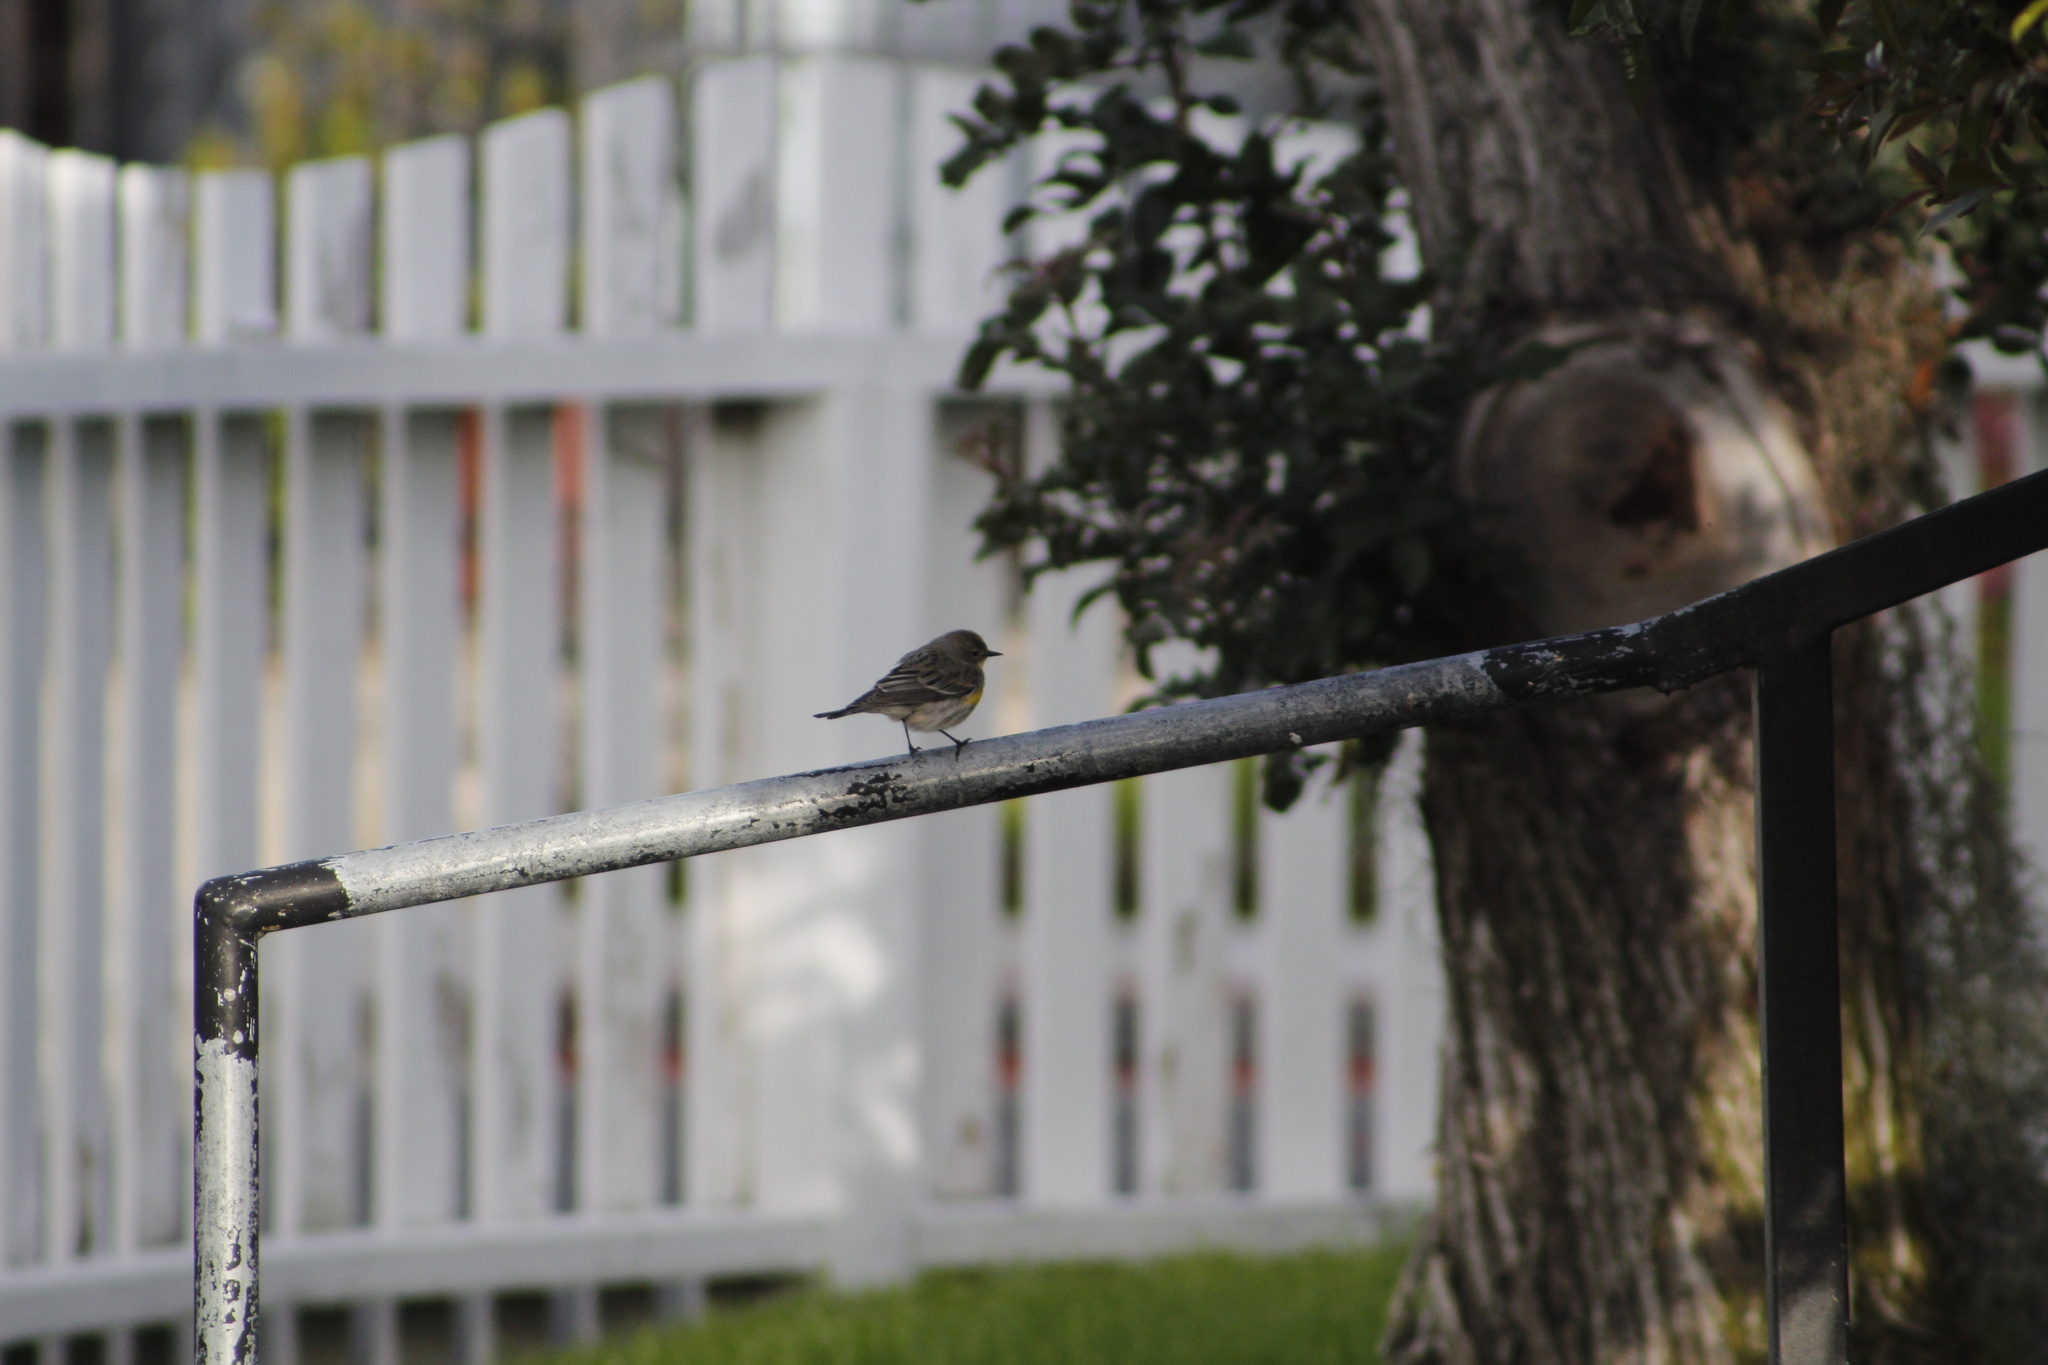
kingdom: Animalia
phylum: Chordata
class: Aves
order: Passeriformes
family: Parulidae
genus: Setophaga
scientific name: Setophaga coronata
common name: Myrtle warbler
